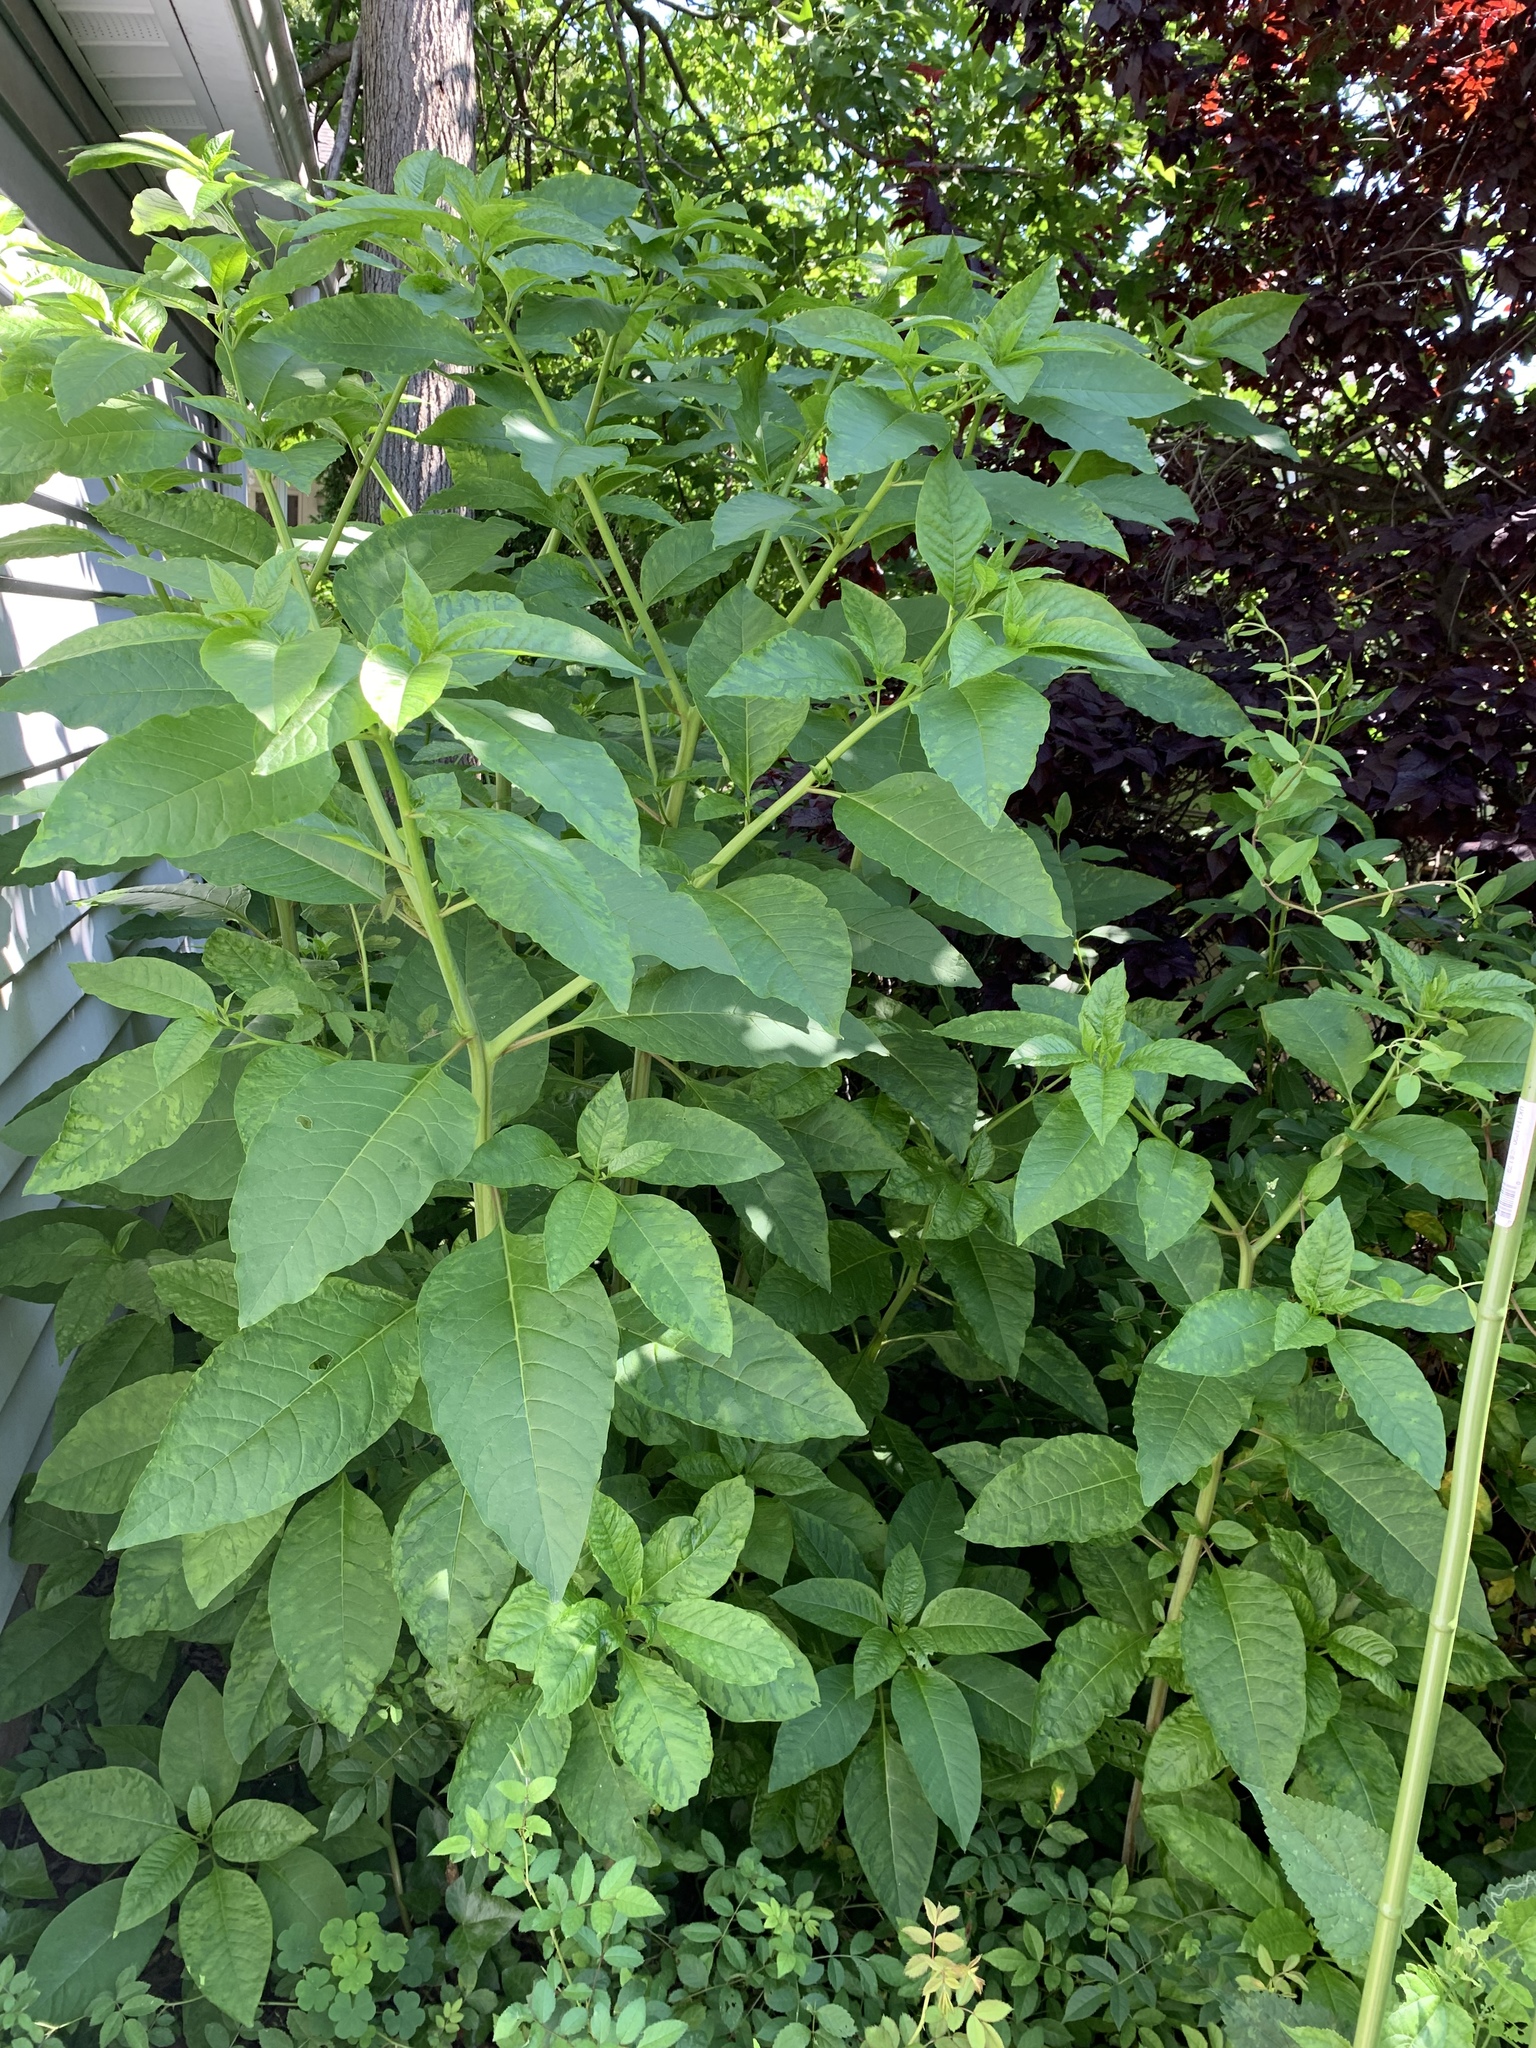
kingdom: Plantae
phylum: Tracheophyta
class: Magnoliopsida
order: Caryophyllales
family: Phytolaccaceae
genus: Phytolacca
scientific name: Phytolacca americana
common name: American pokeweed
